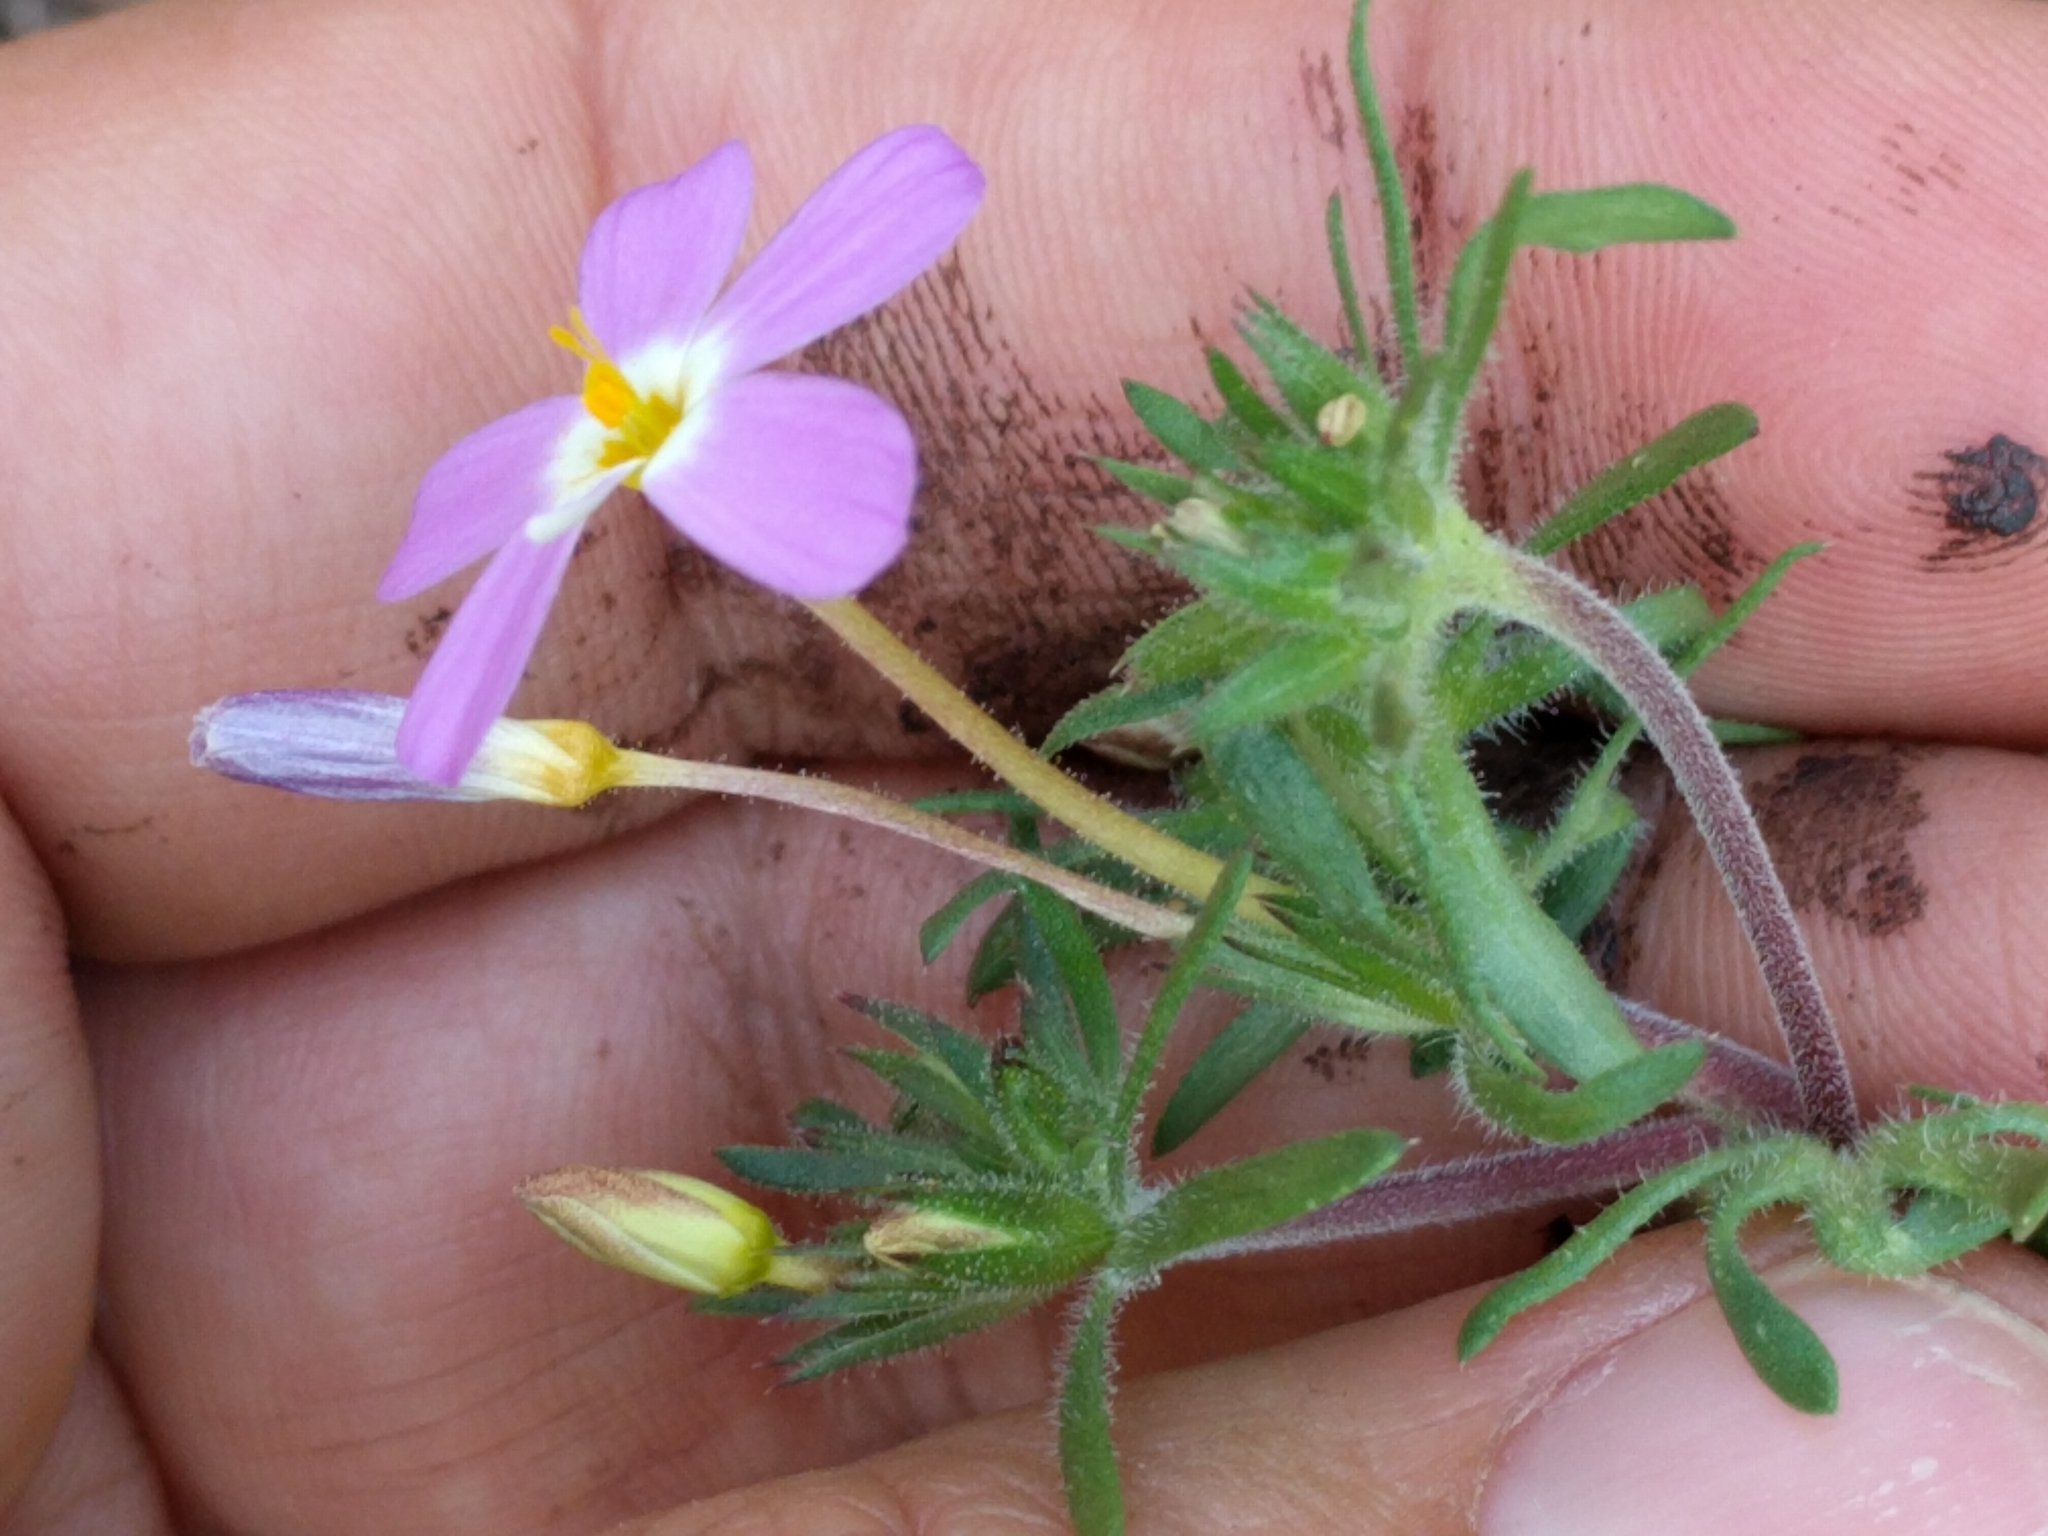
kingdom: Plantae
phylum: Tracheophyta
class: Magnoliopsida
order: Ericales
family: Polemoniaceae
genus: Leptosiphon
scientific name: Leptosiphon latisectus
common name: Coast range linanthus
